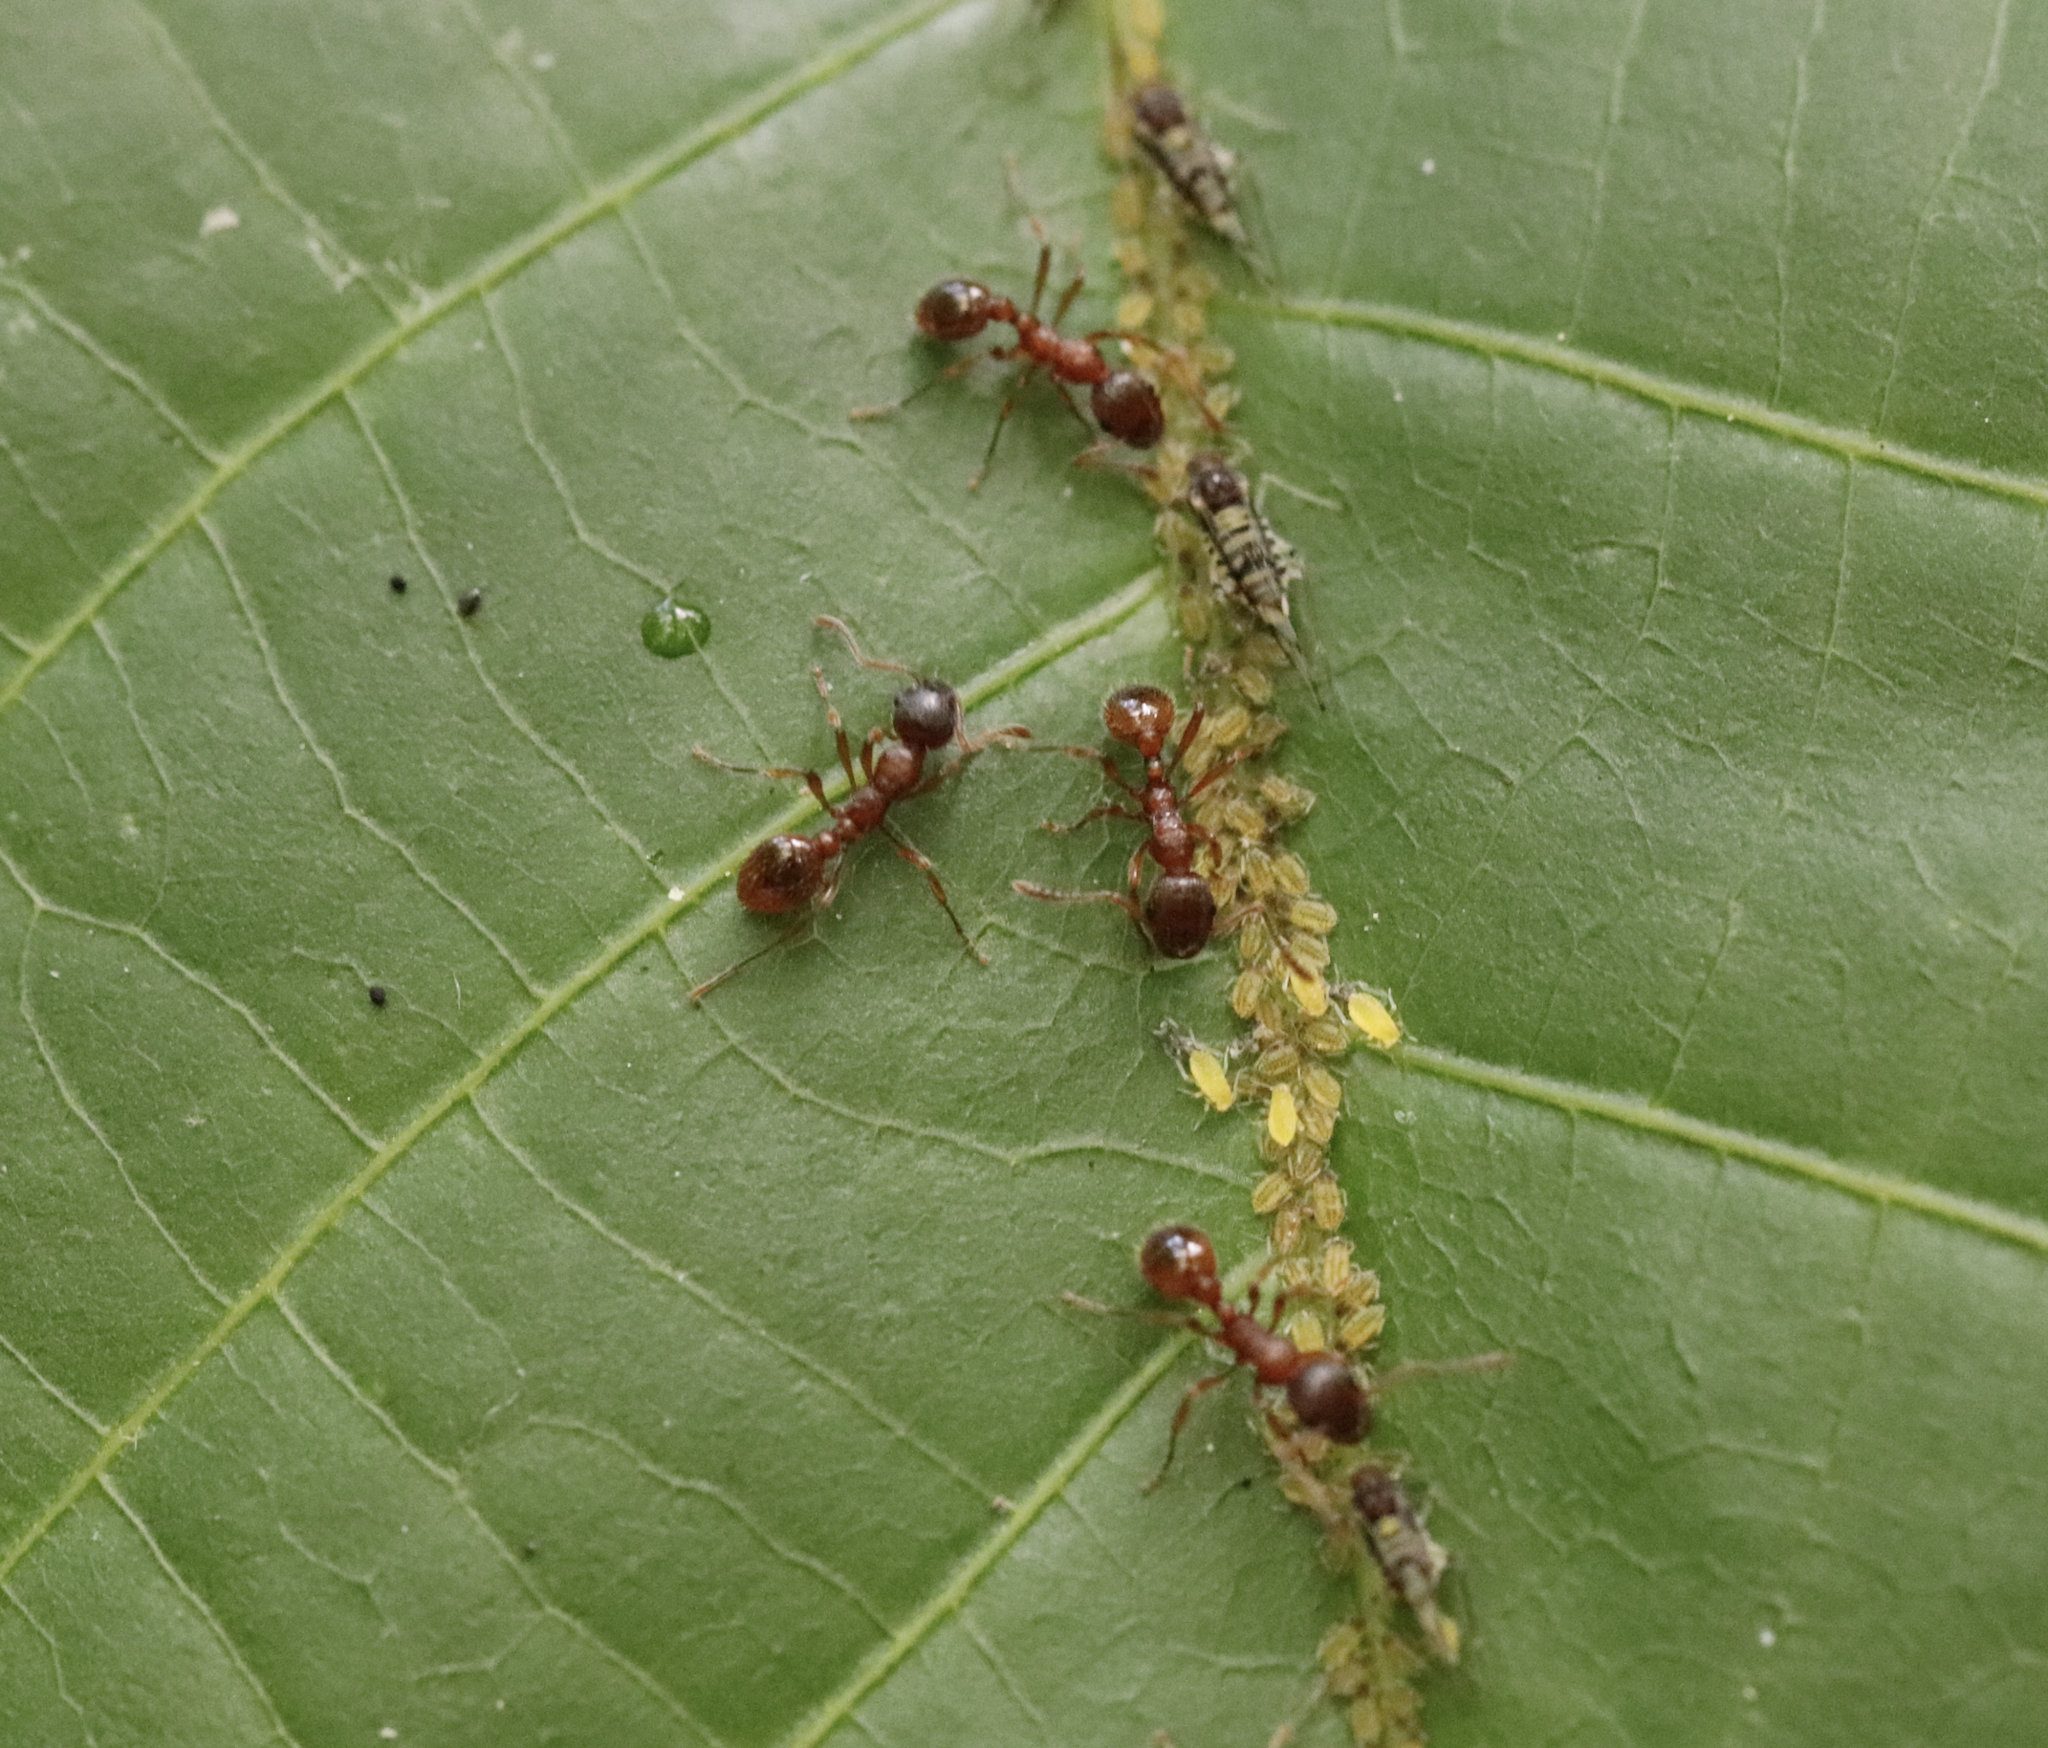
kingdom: Animalia
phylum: Arthropoda
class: Insecta
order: Hemiptera
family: Aphididae
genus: Panaphis
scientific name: Panaphis juglandis
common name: Large walnut aphid
